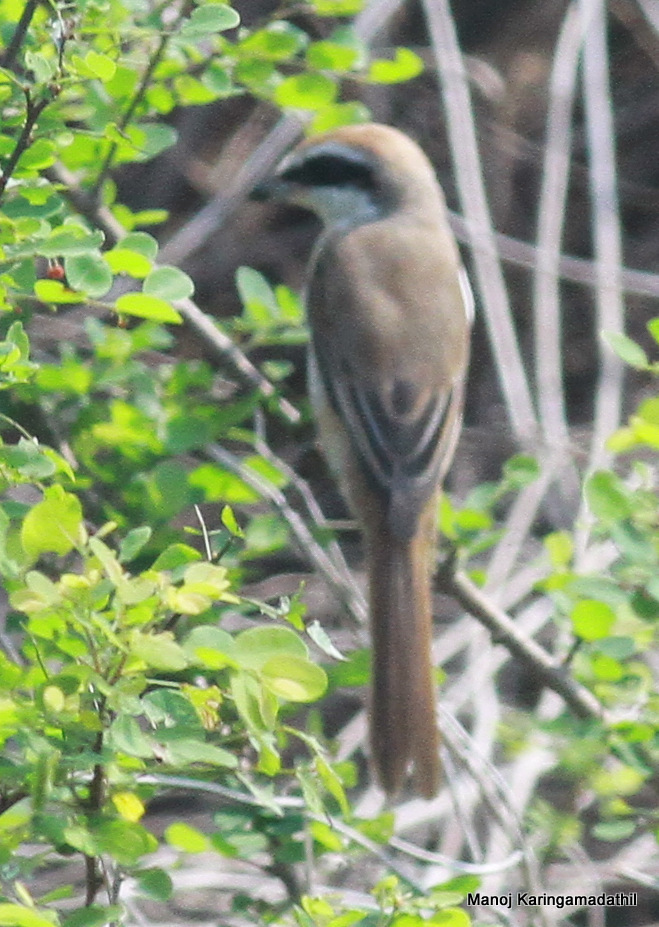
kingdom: Animalia
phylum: Chordata
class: Aves
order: Passeriformes
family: Laniidae
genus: Lanius
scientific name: Lanius cristatus
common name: Brown shrike
